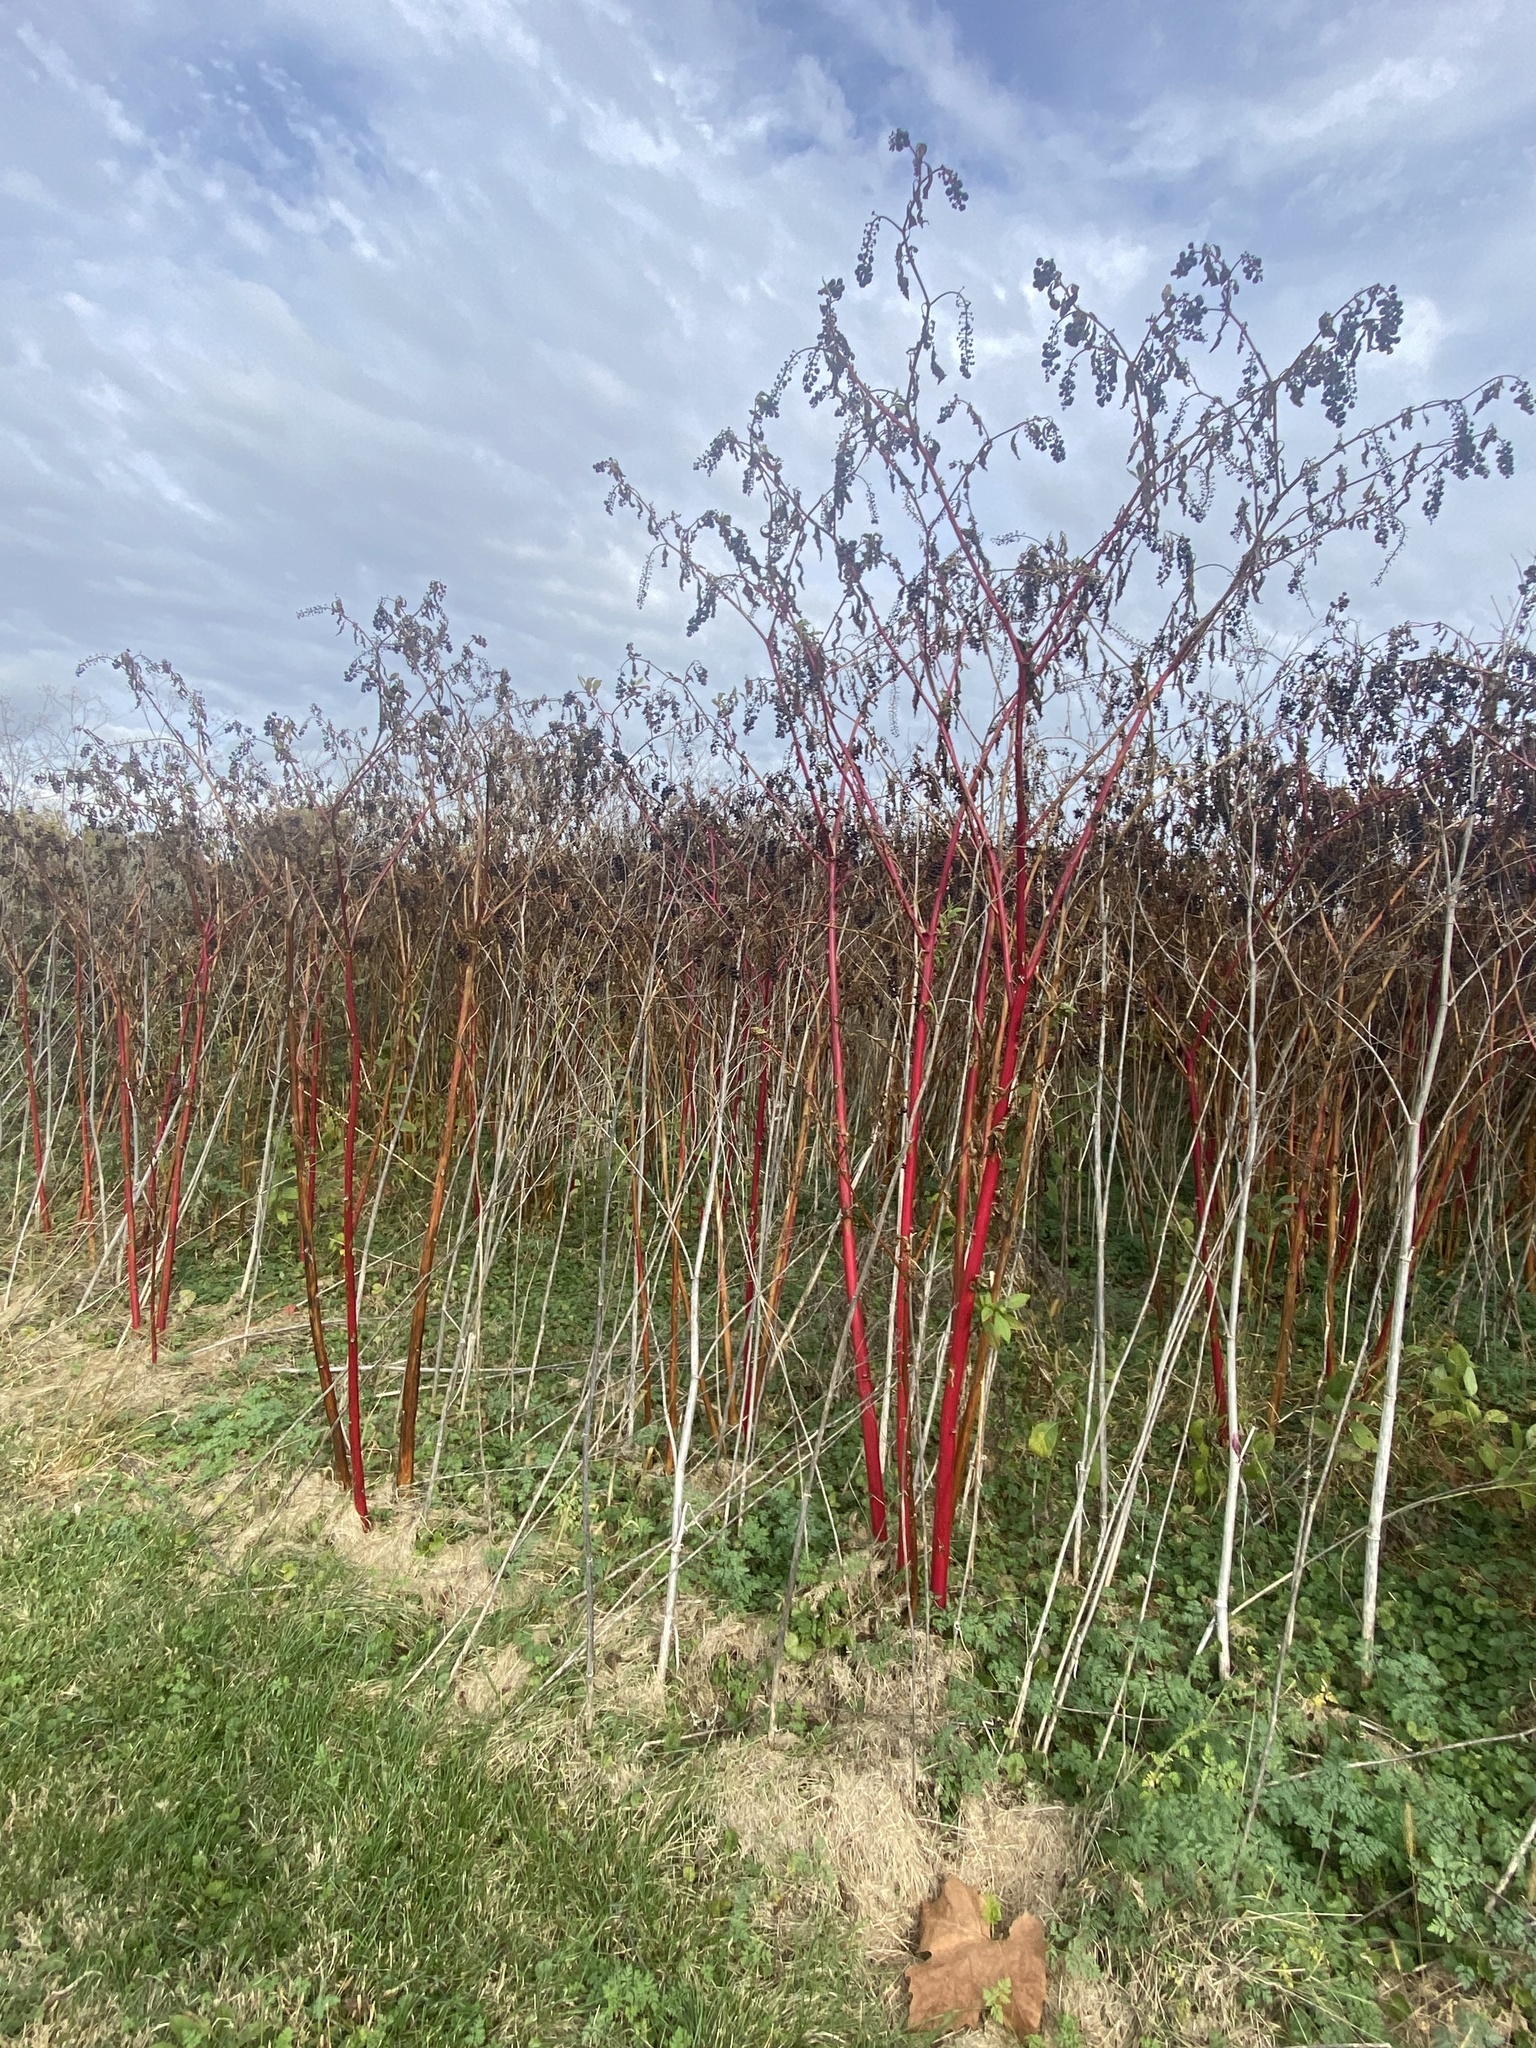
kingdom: Plantae
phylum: Tracheophyta
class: Magnoliopsida
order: Caryophyllales
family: Phytolaccaceae
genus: Phytolacca
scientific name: Phytolacca americana
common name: American pokeweed
